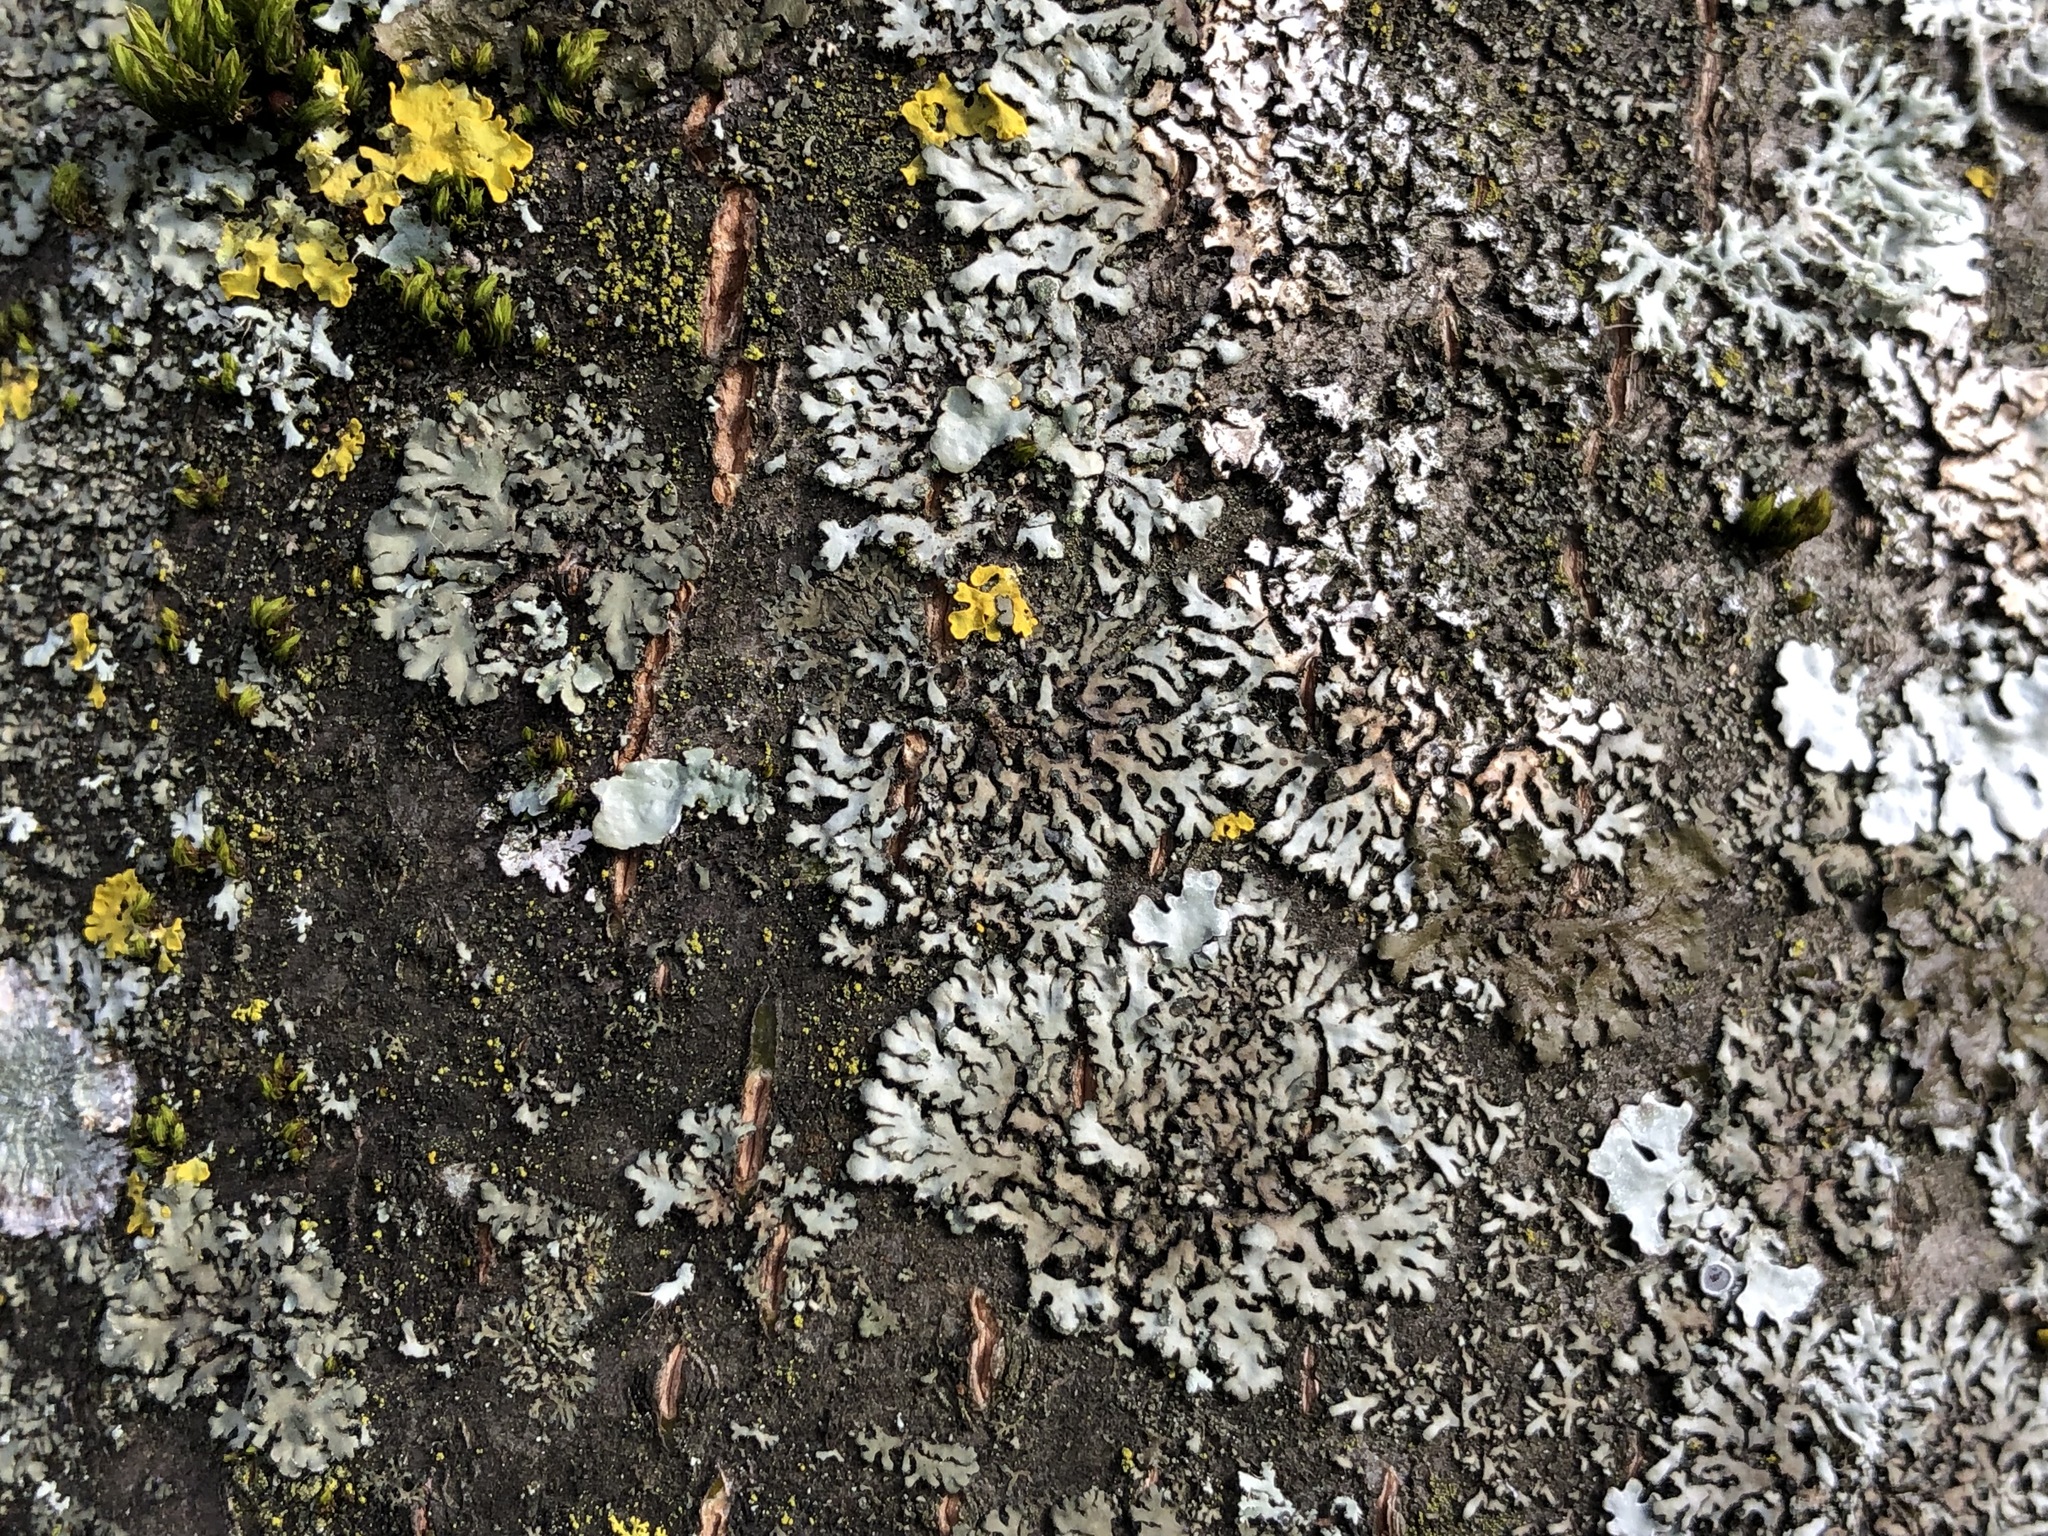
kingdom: Fungi
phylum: Ascomycota
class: Lecanoromycetes
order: Caliciales
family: Physciaceae
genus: Phaeophyscia
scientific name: Phaeophyscia orbicularis
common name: Mealy shadow lichen
